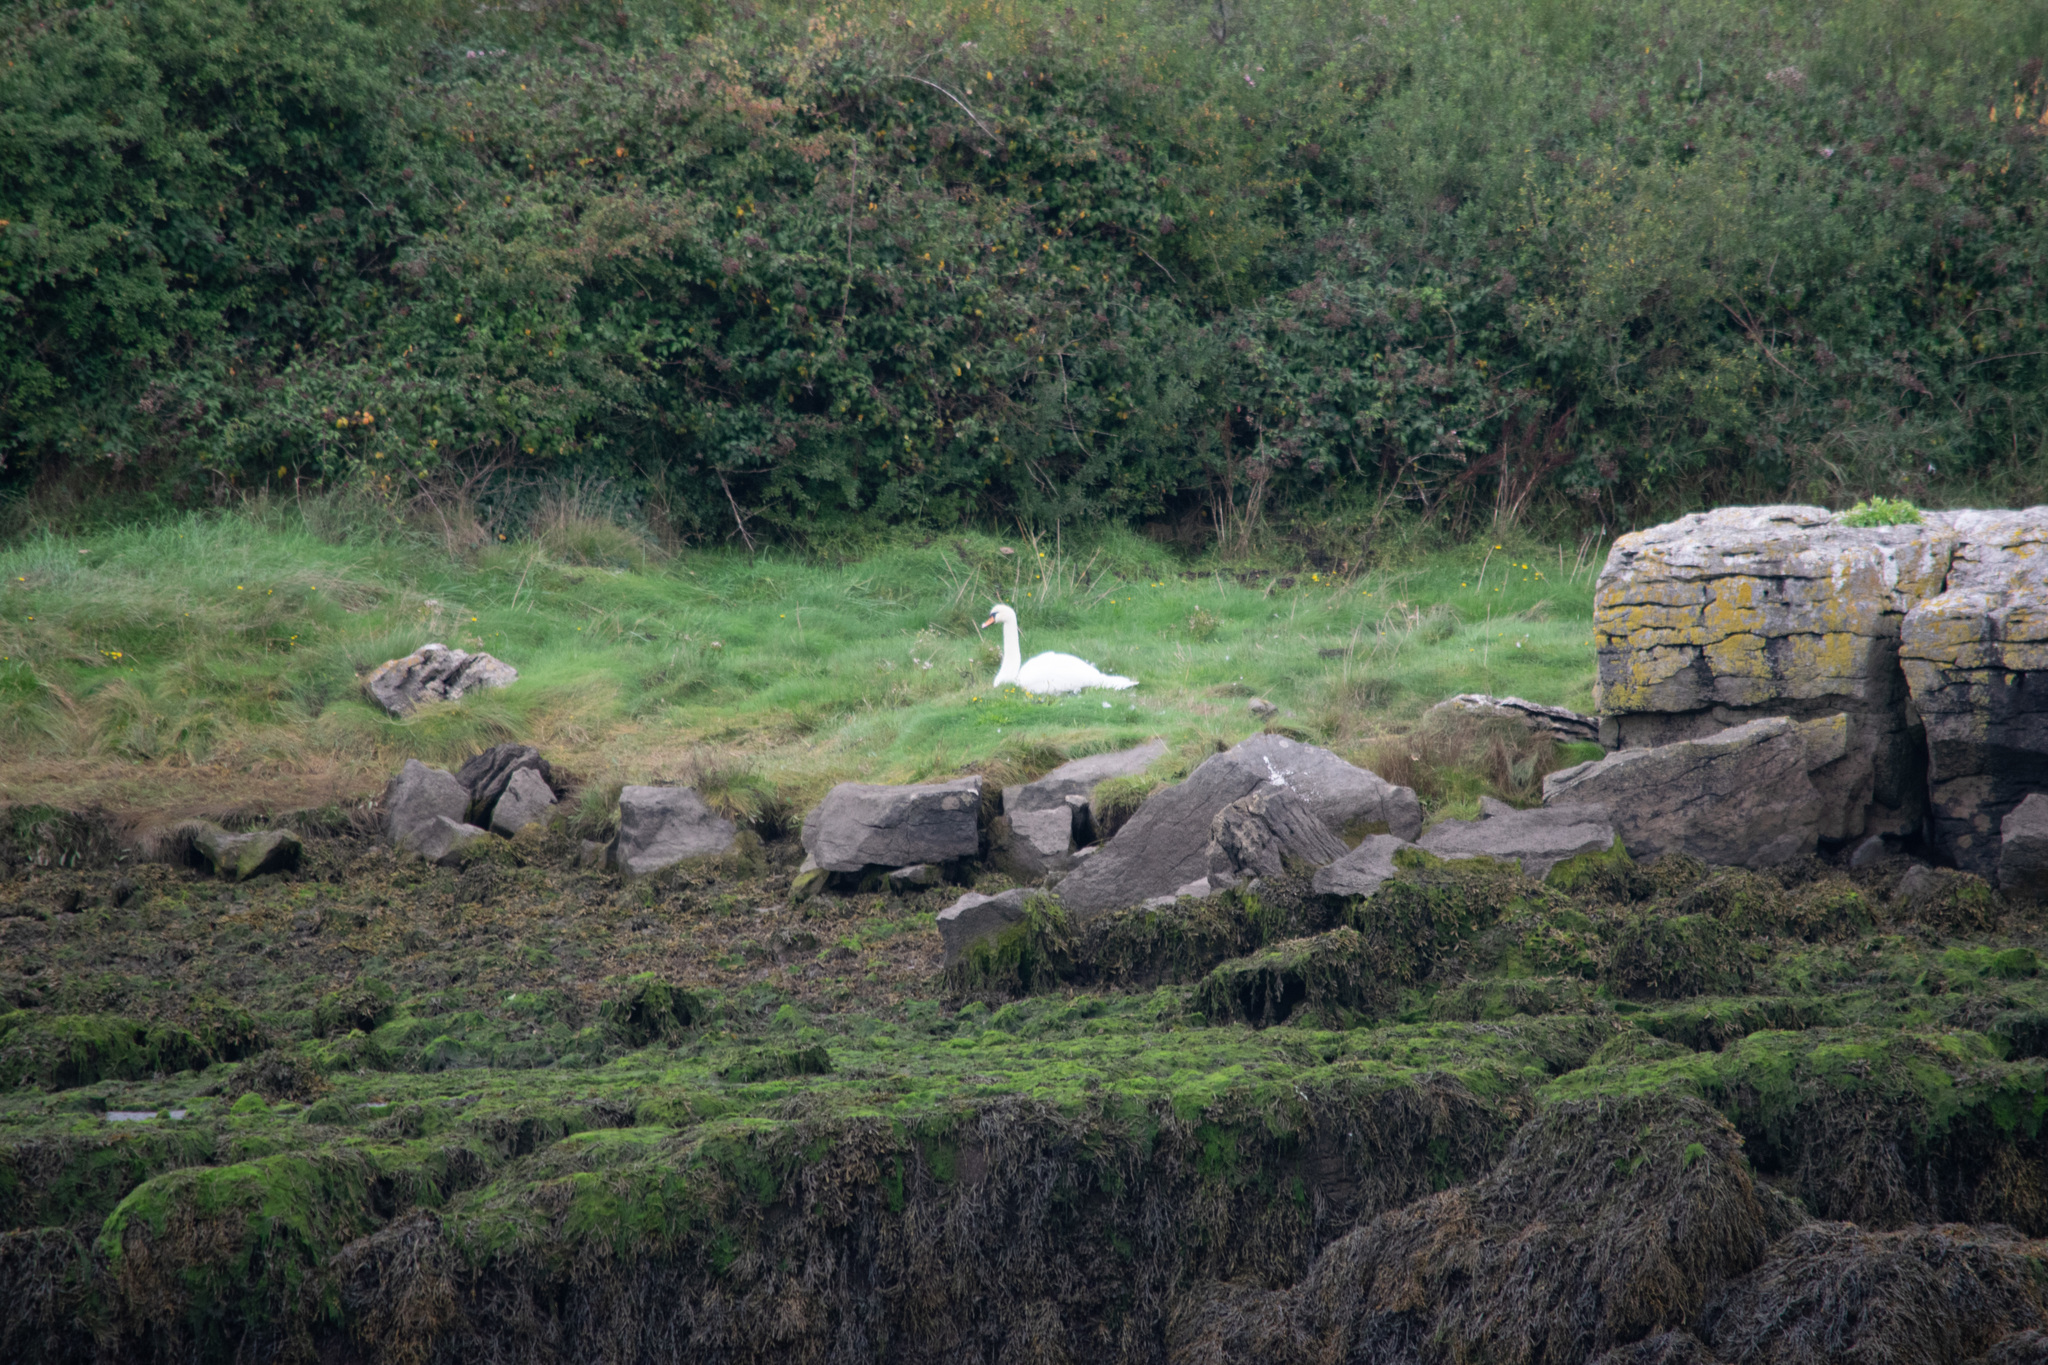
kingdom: Animalia
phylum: Chordata
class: Aves
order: Anseriformes
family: Anatidae
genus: Cygnus
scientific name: Cygnus olor
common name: Mute swan
